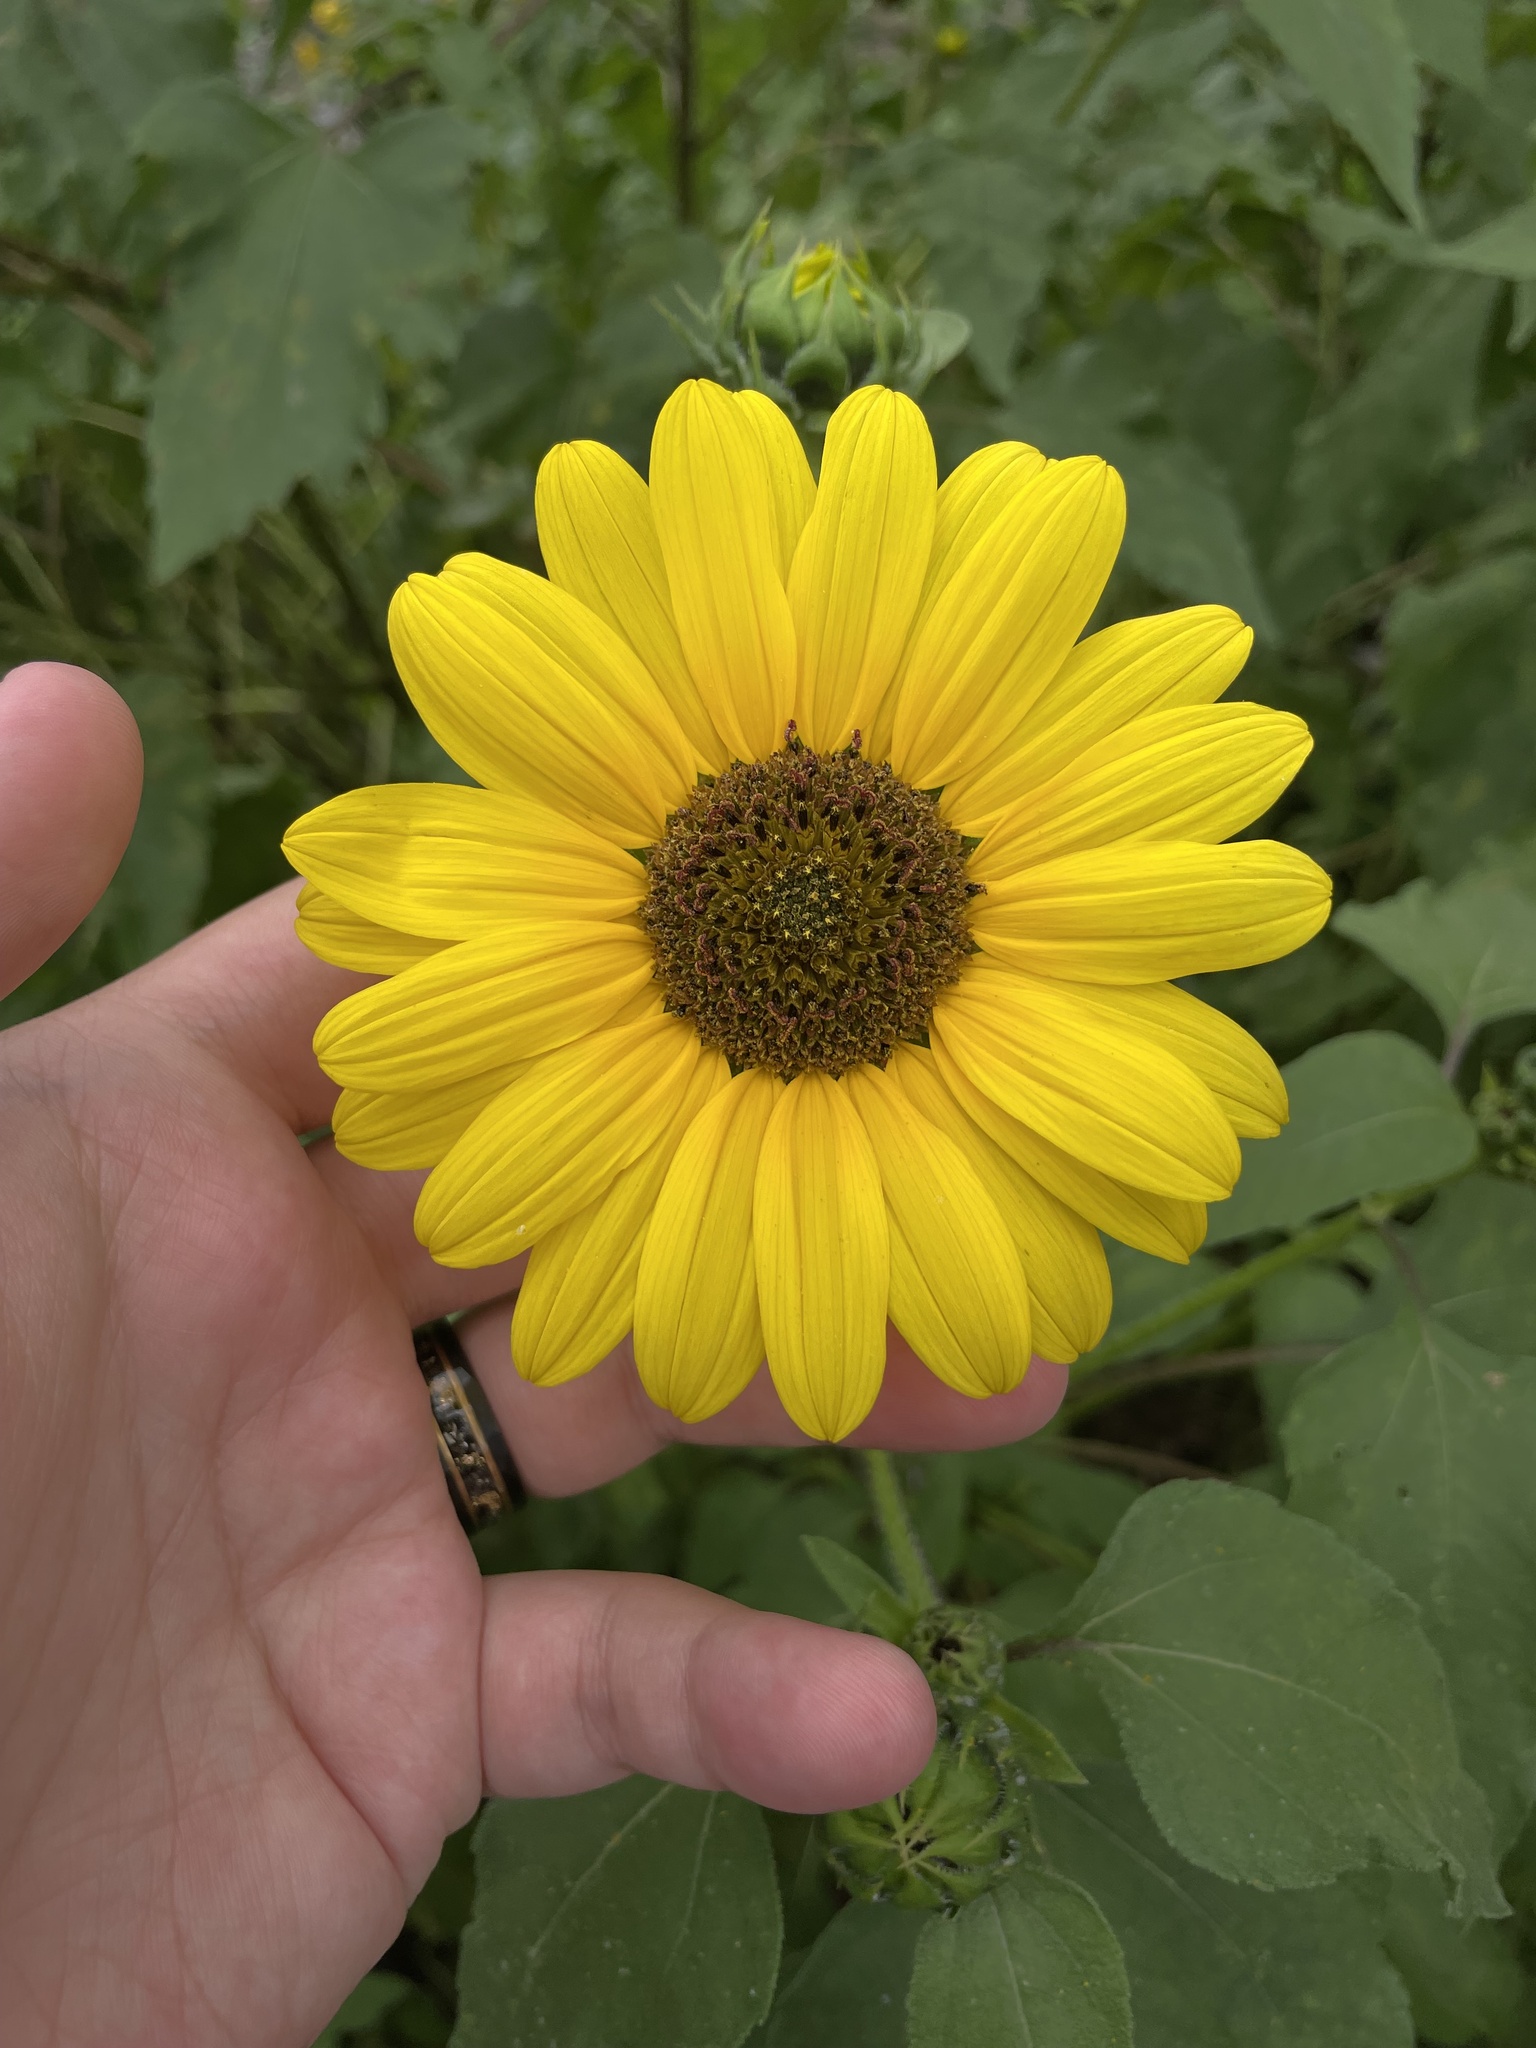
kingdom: Plantae
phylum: Tracheophyta
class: Magnoliopsida
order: Asterales
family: Asteraceae
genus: Helianthus
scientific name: Helianthus annuus
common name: Sunflower
